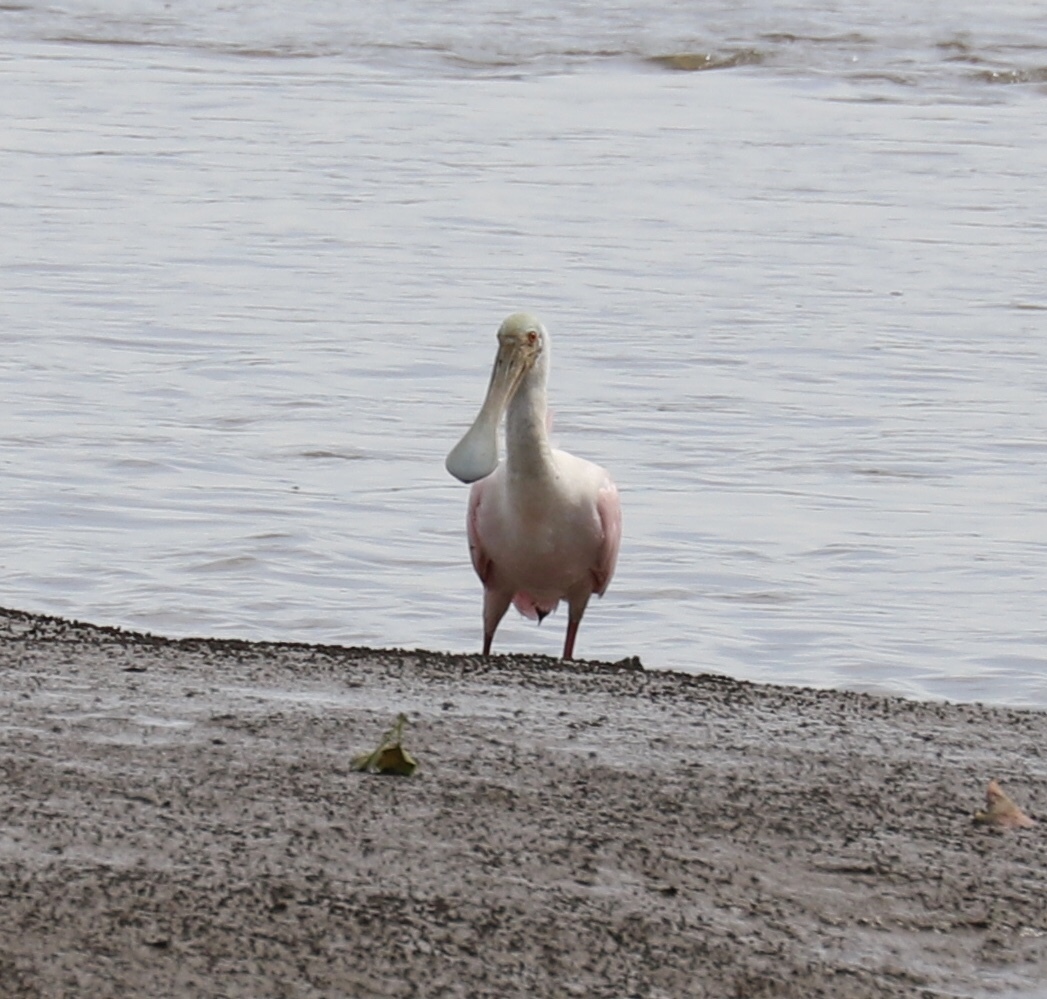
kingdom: Animalia
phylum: Chordata
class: Aves
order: Pelecaniformes
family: Threskiornithidae
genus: Platalea
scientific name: Platalea ajaja
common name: Roseate spoonbill
